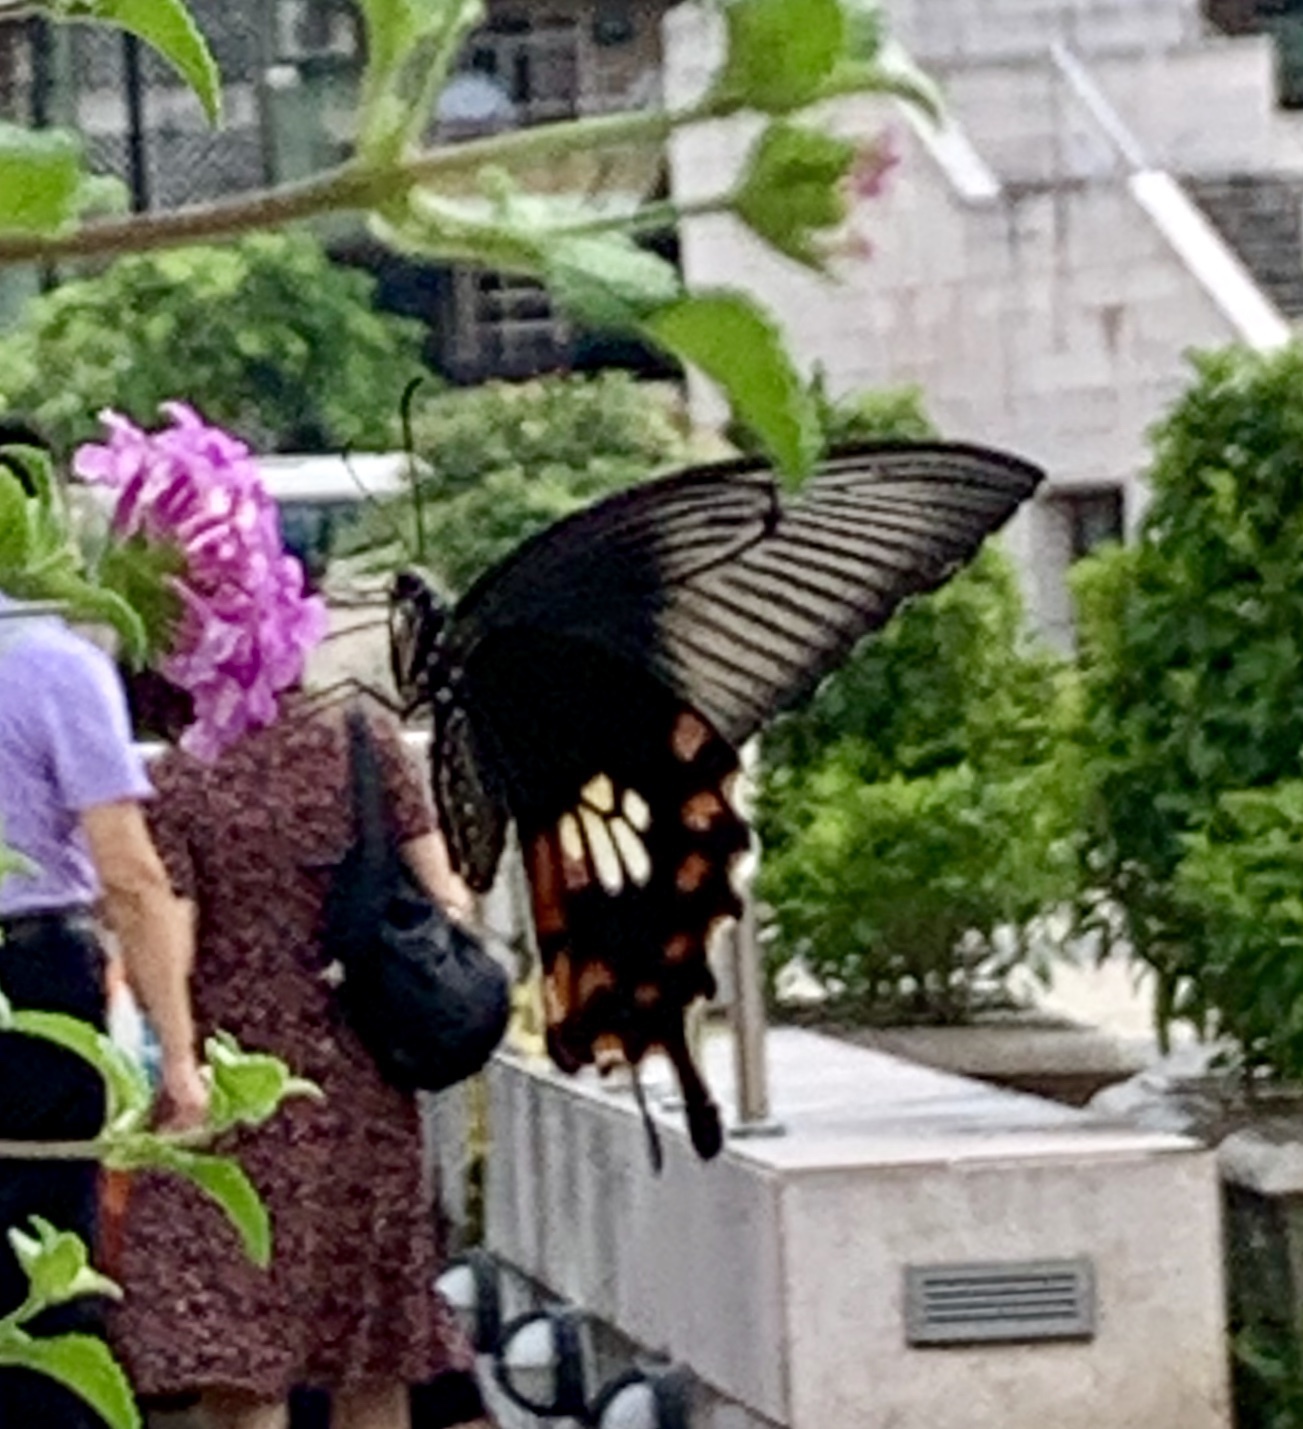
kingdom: Animalia
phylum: Arthropoda
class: Insecta
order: Lepidoptera
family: Papilionidae
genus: Papilio
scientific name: Papilio polytes
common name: Common mormon
